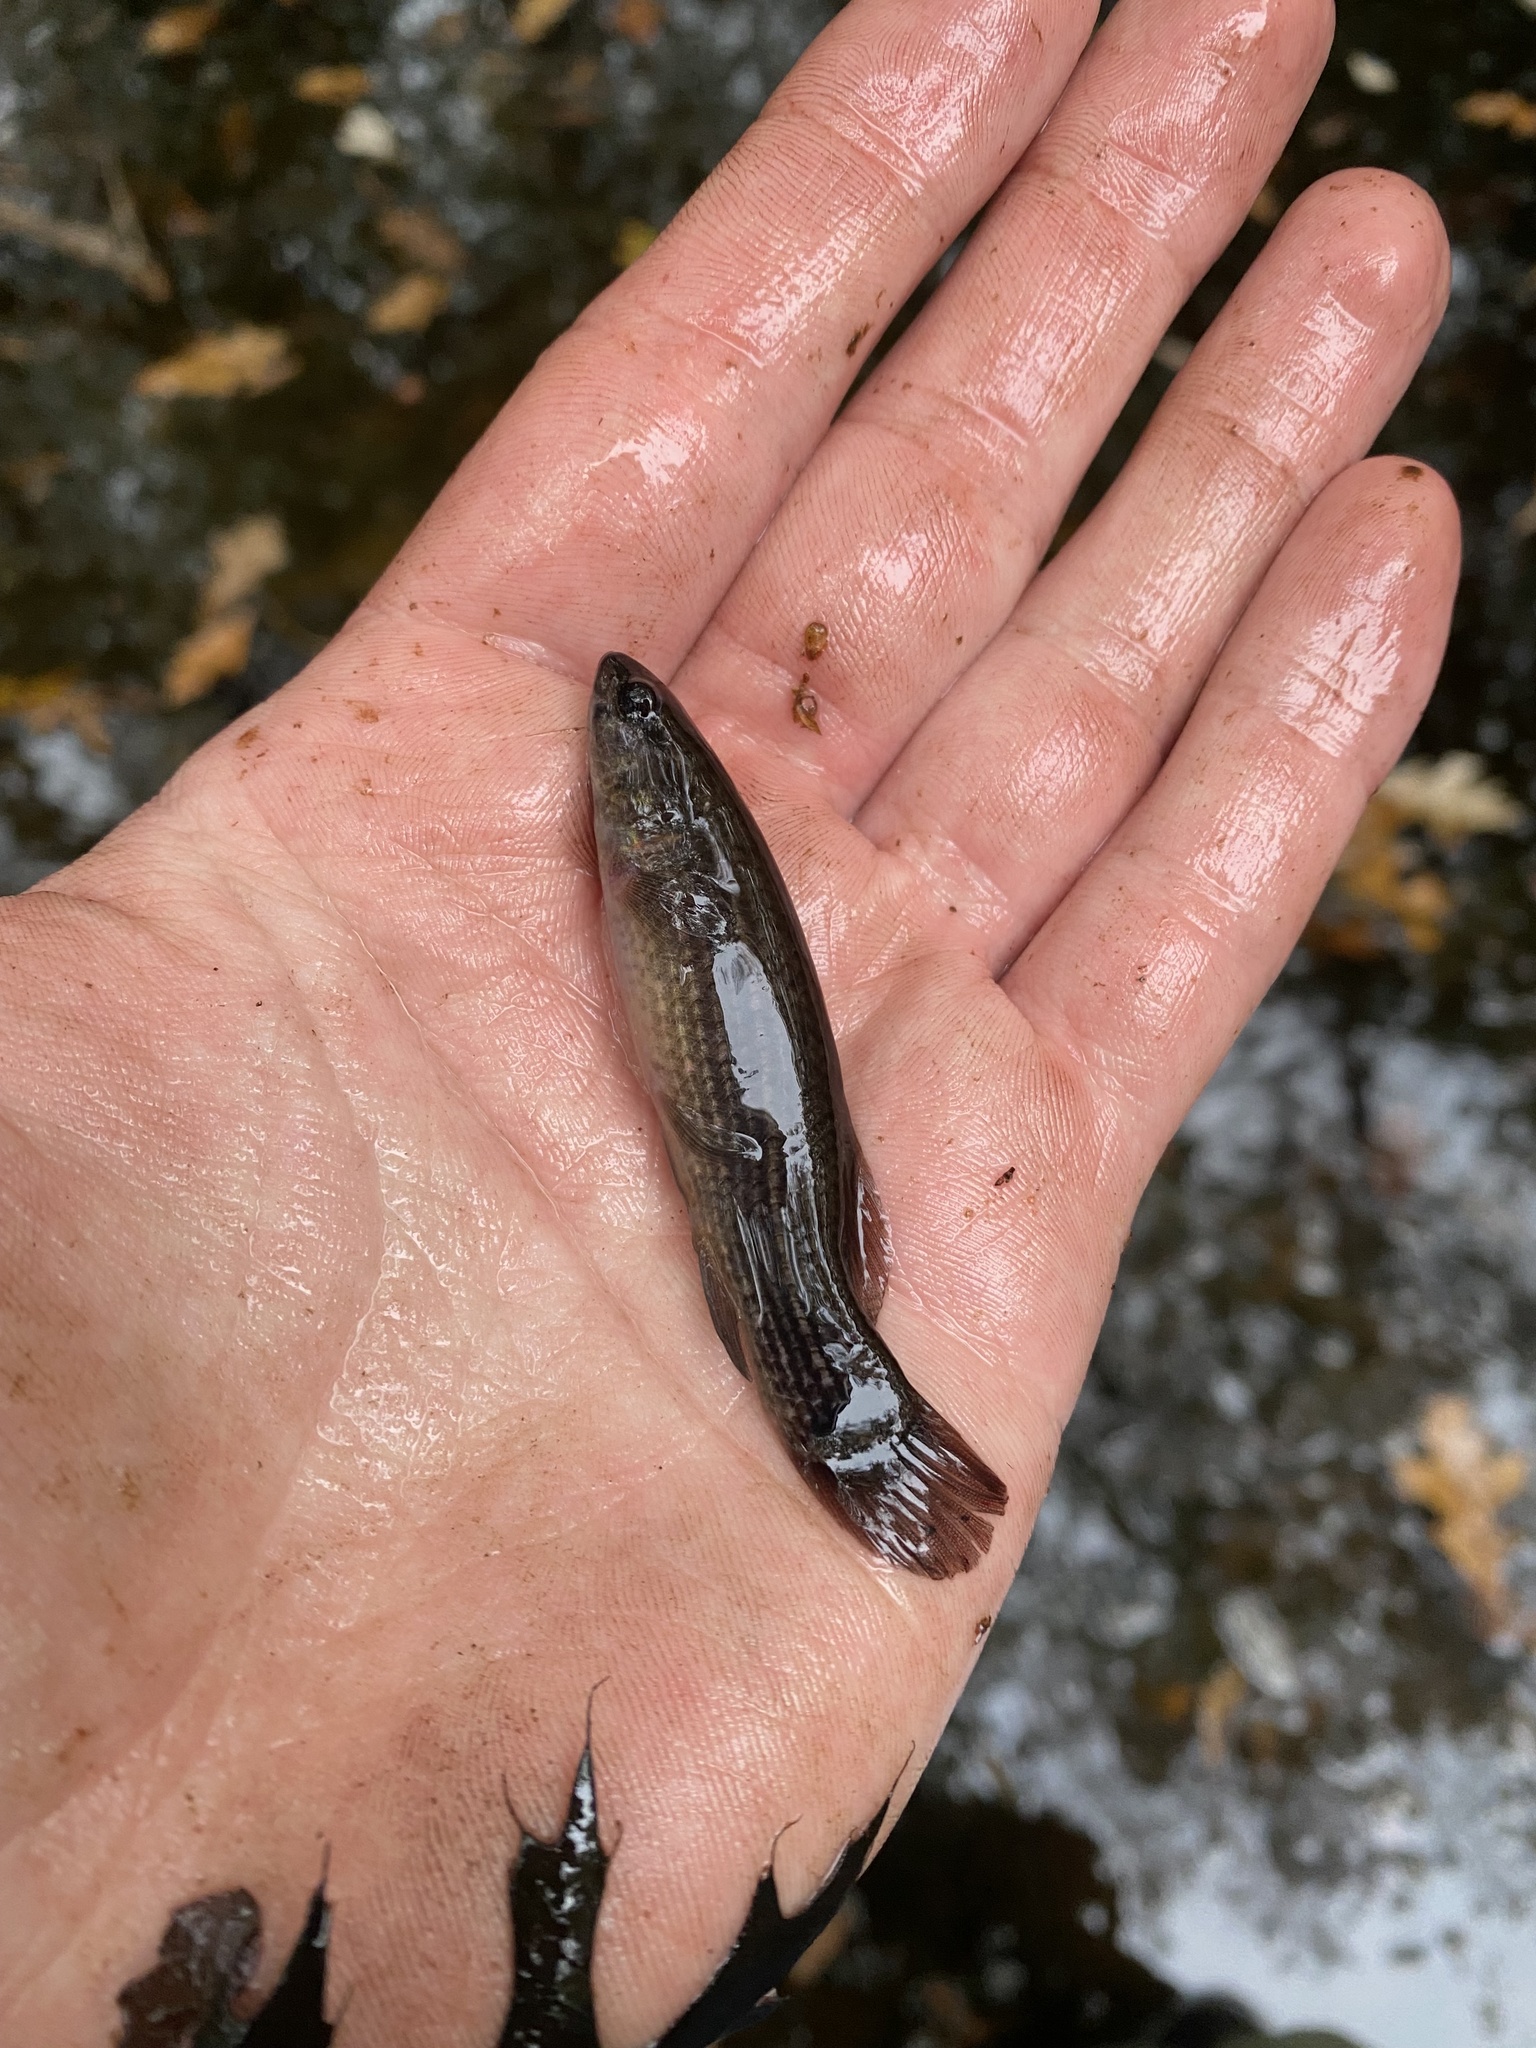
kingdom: Animalia
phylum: Chordata
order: Esociformes
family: Umbridae
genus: Umbra
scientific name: Umbra pygmaea
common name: Eastern mudminnow
